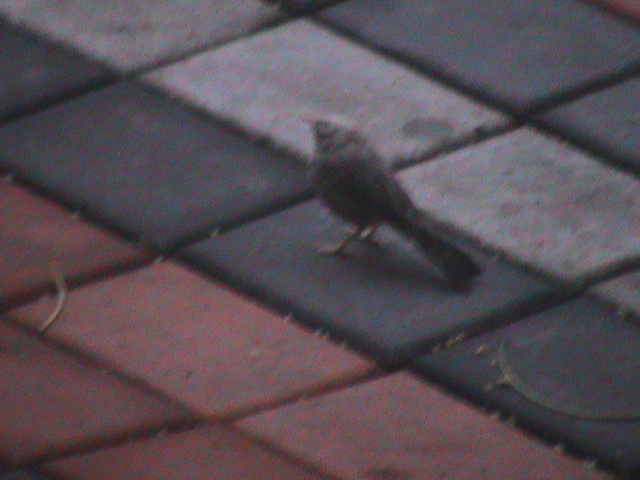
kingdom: Animalia
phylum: Chordata
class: Aves
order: Passeriformes
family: Leiothrichidae
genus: Turdoides
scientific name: Turdoides affinis
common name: Yellow-billed babbler
